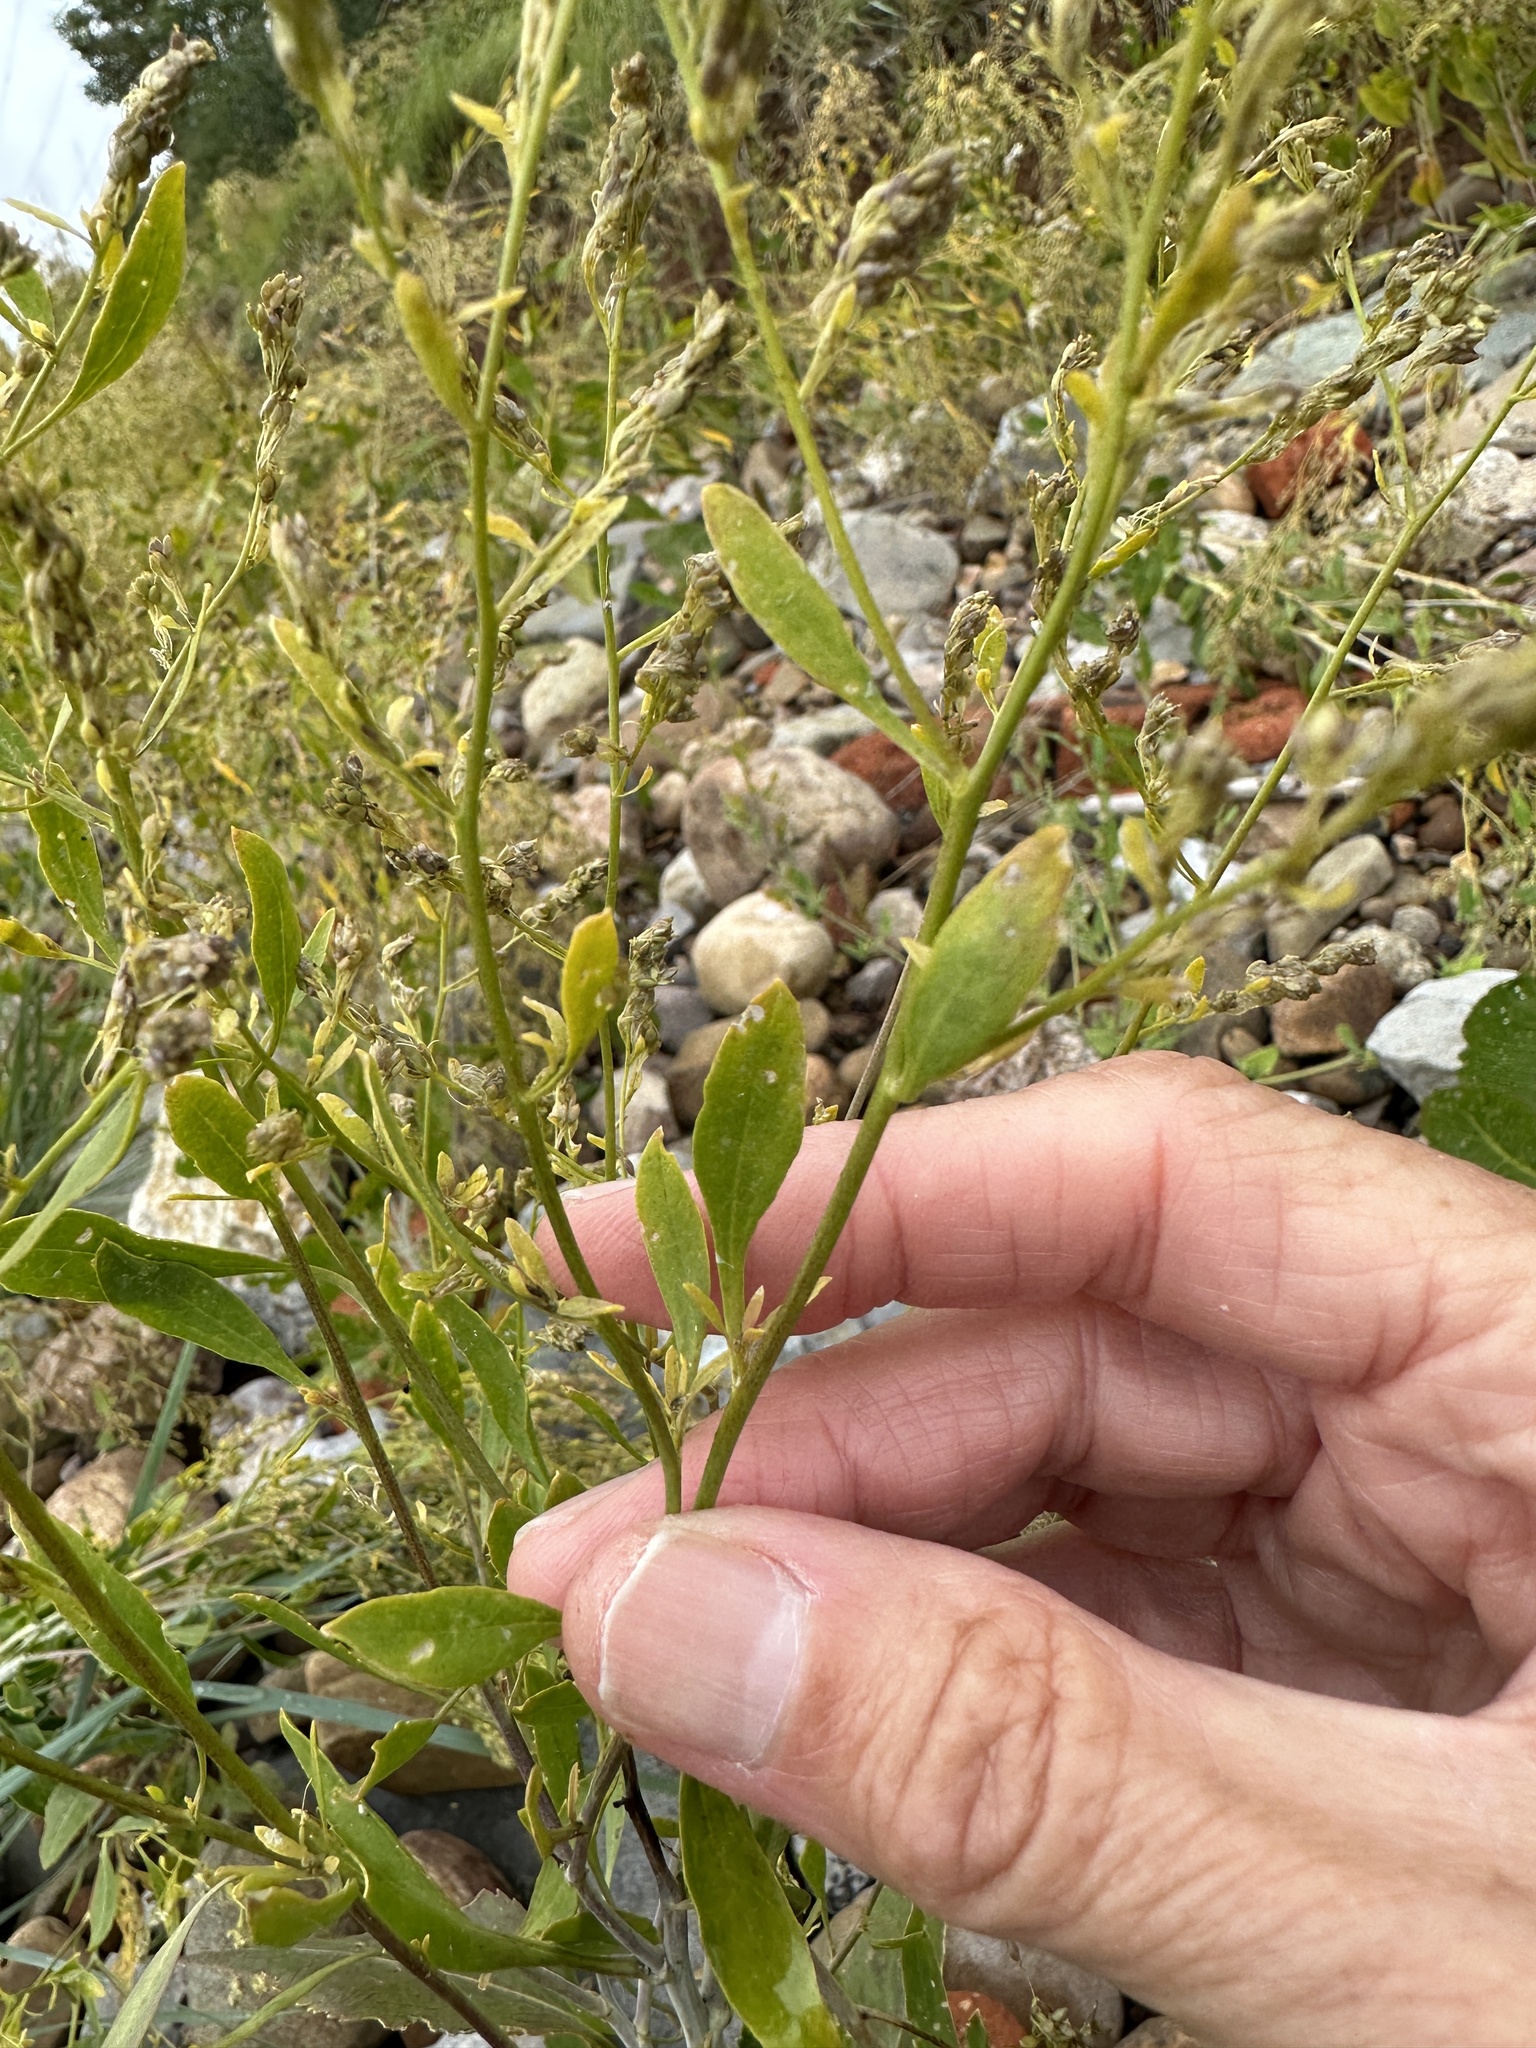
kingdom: Plantae
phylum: Tracheophyta
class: Magnoliopsida
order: Brassicales
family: Brassicaceae
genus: Lepidium
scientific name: Lepidium latifolium
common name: Dittander
